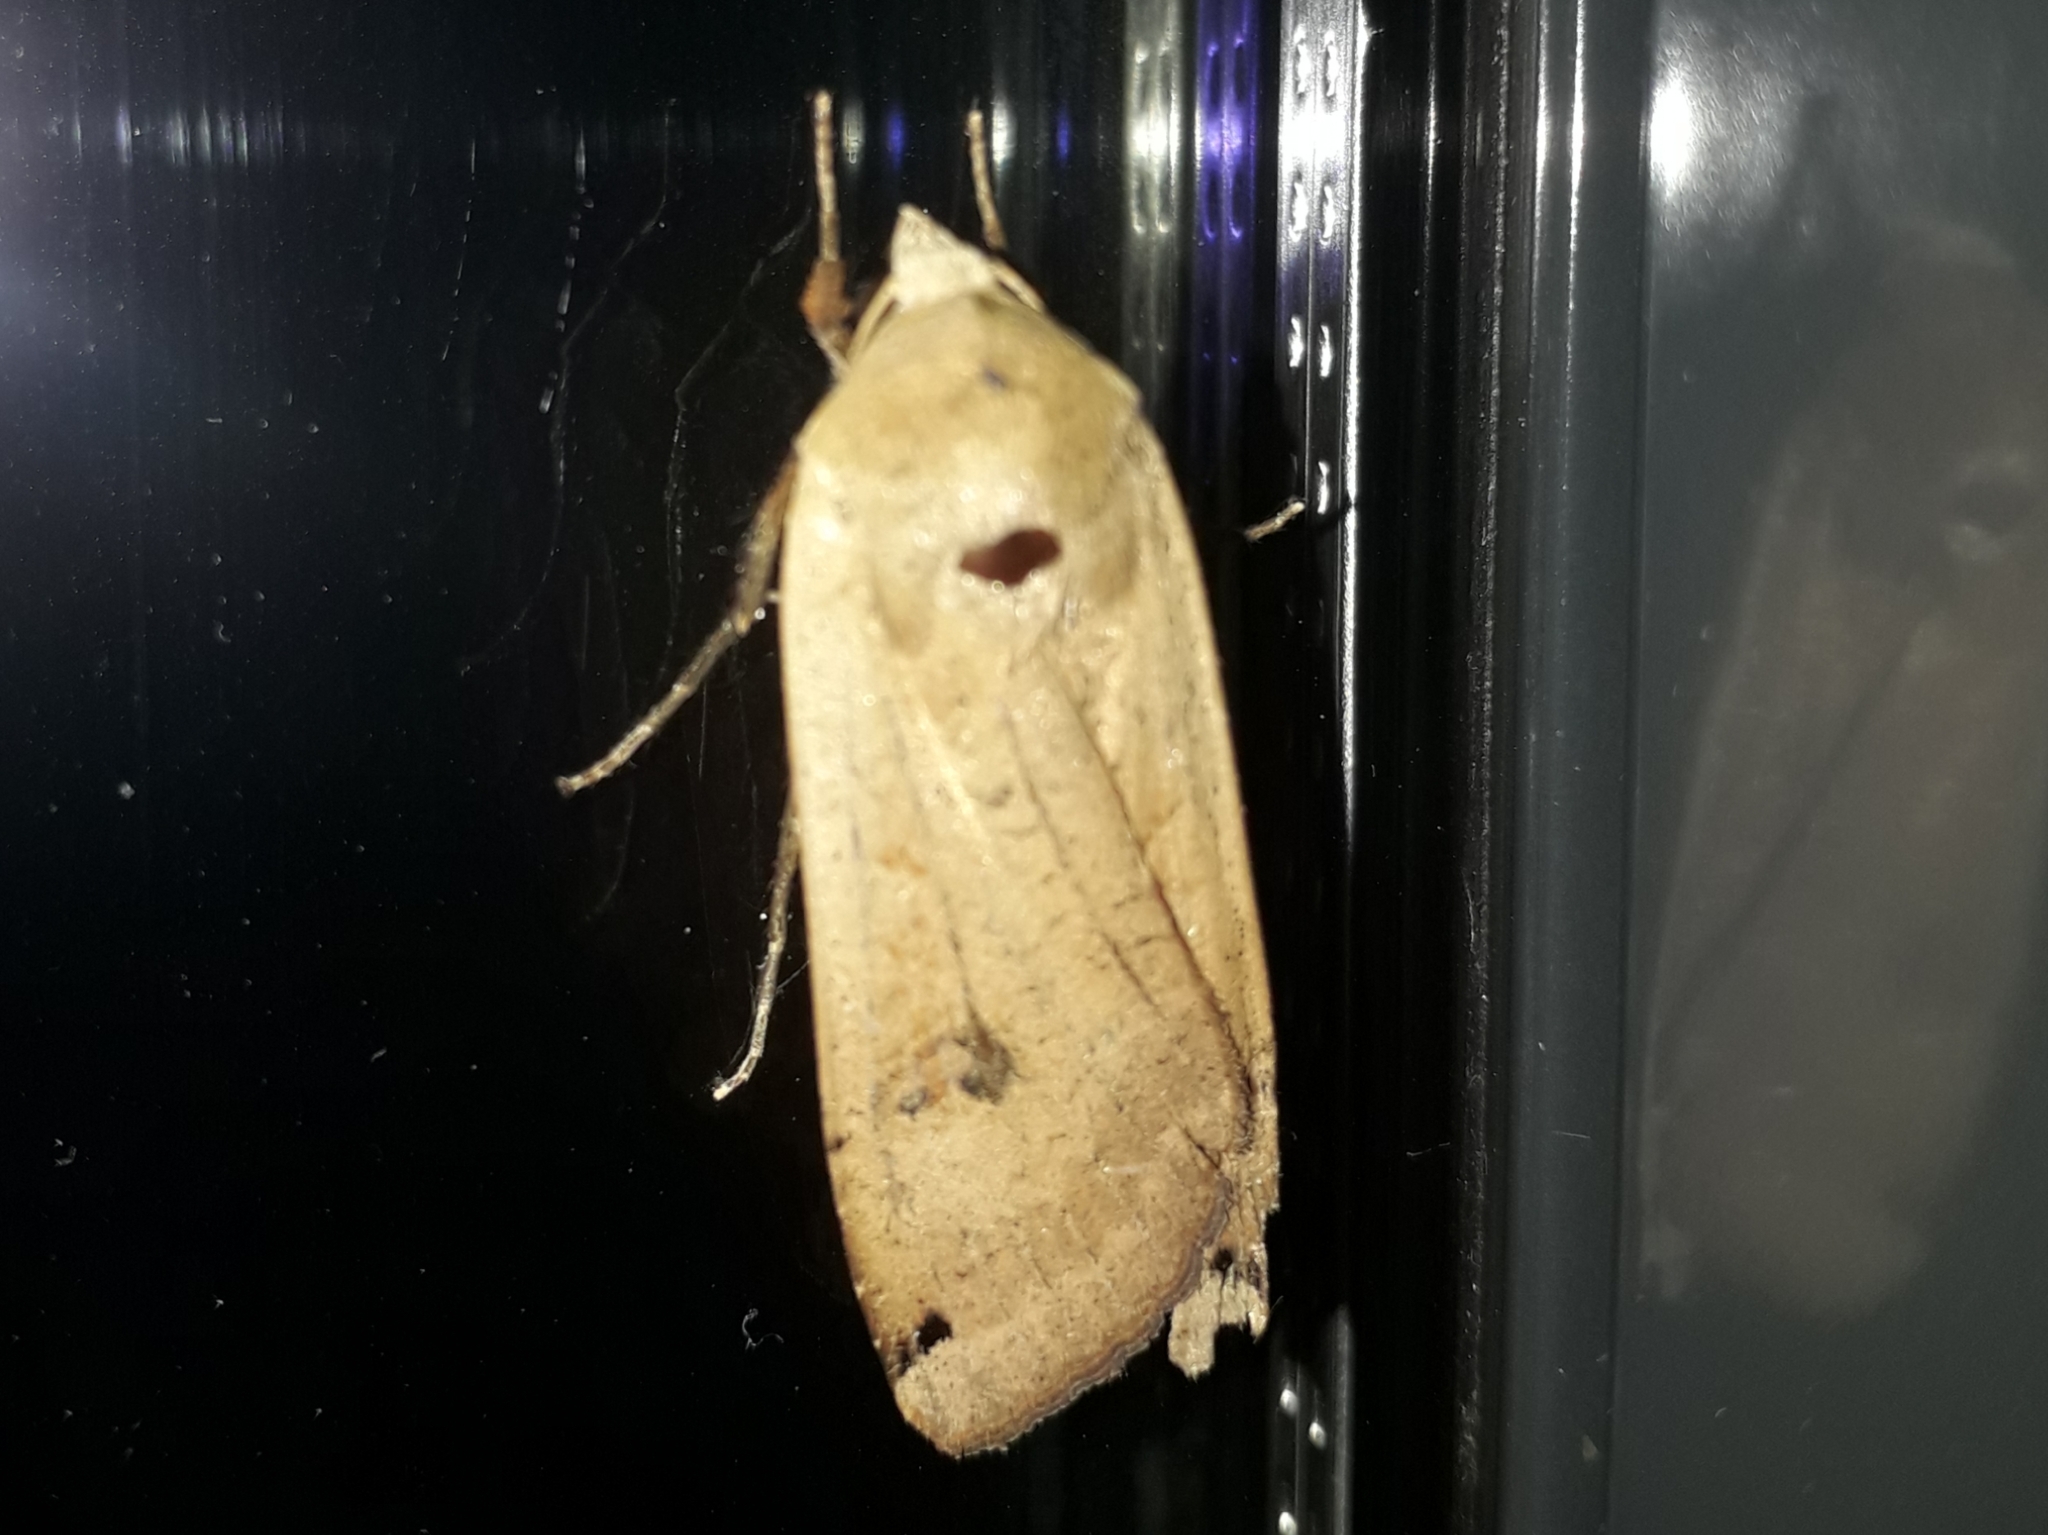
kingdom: Animalia
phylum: Arthropoda
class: Insecta
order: Lepidoptera
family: Noctuidae
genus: Noctua
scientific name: Noctua pronuba
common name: Large yellow underwing
